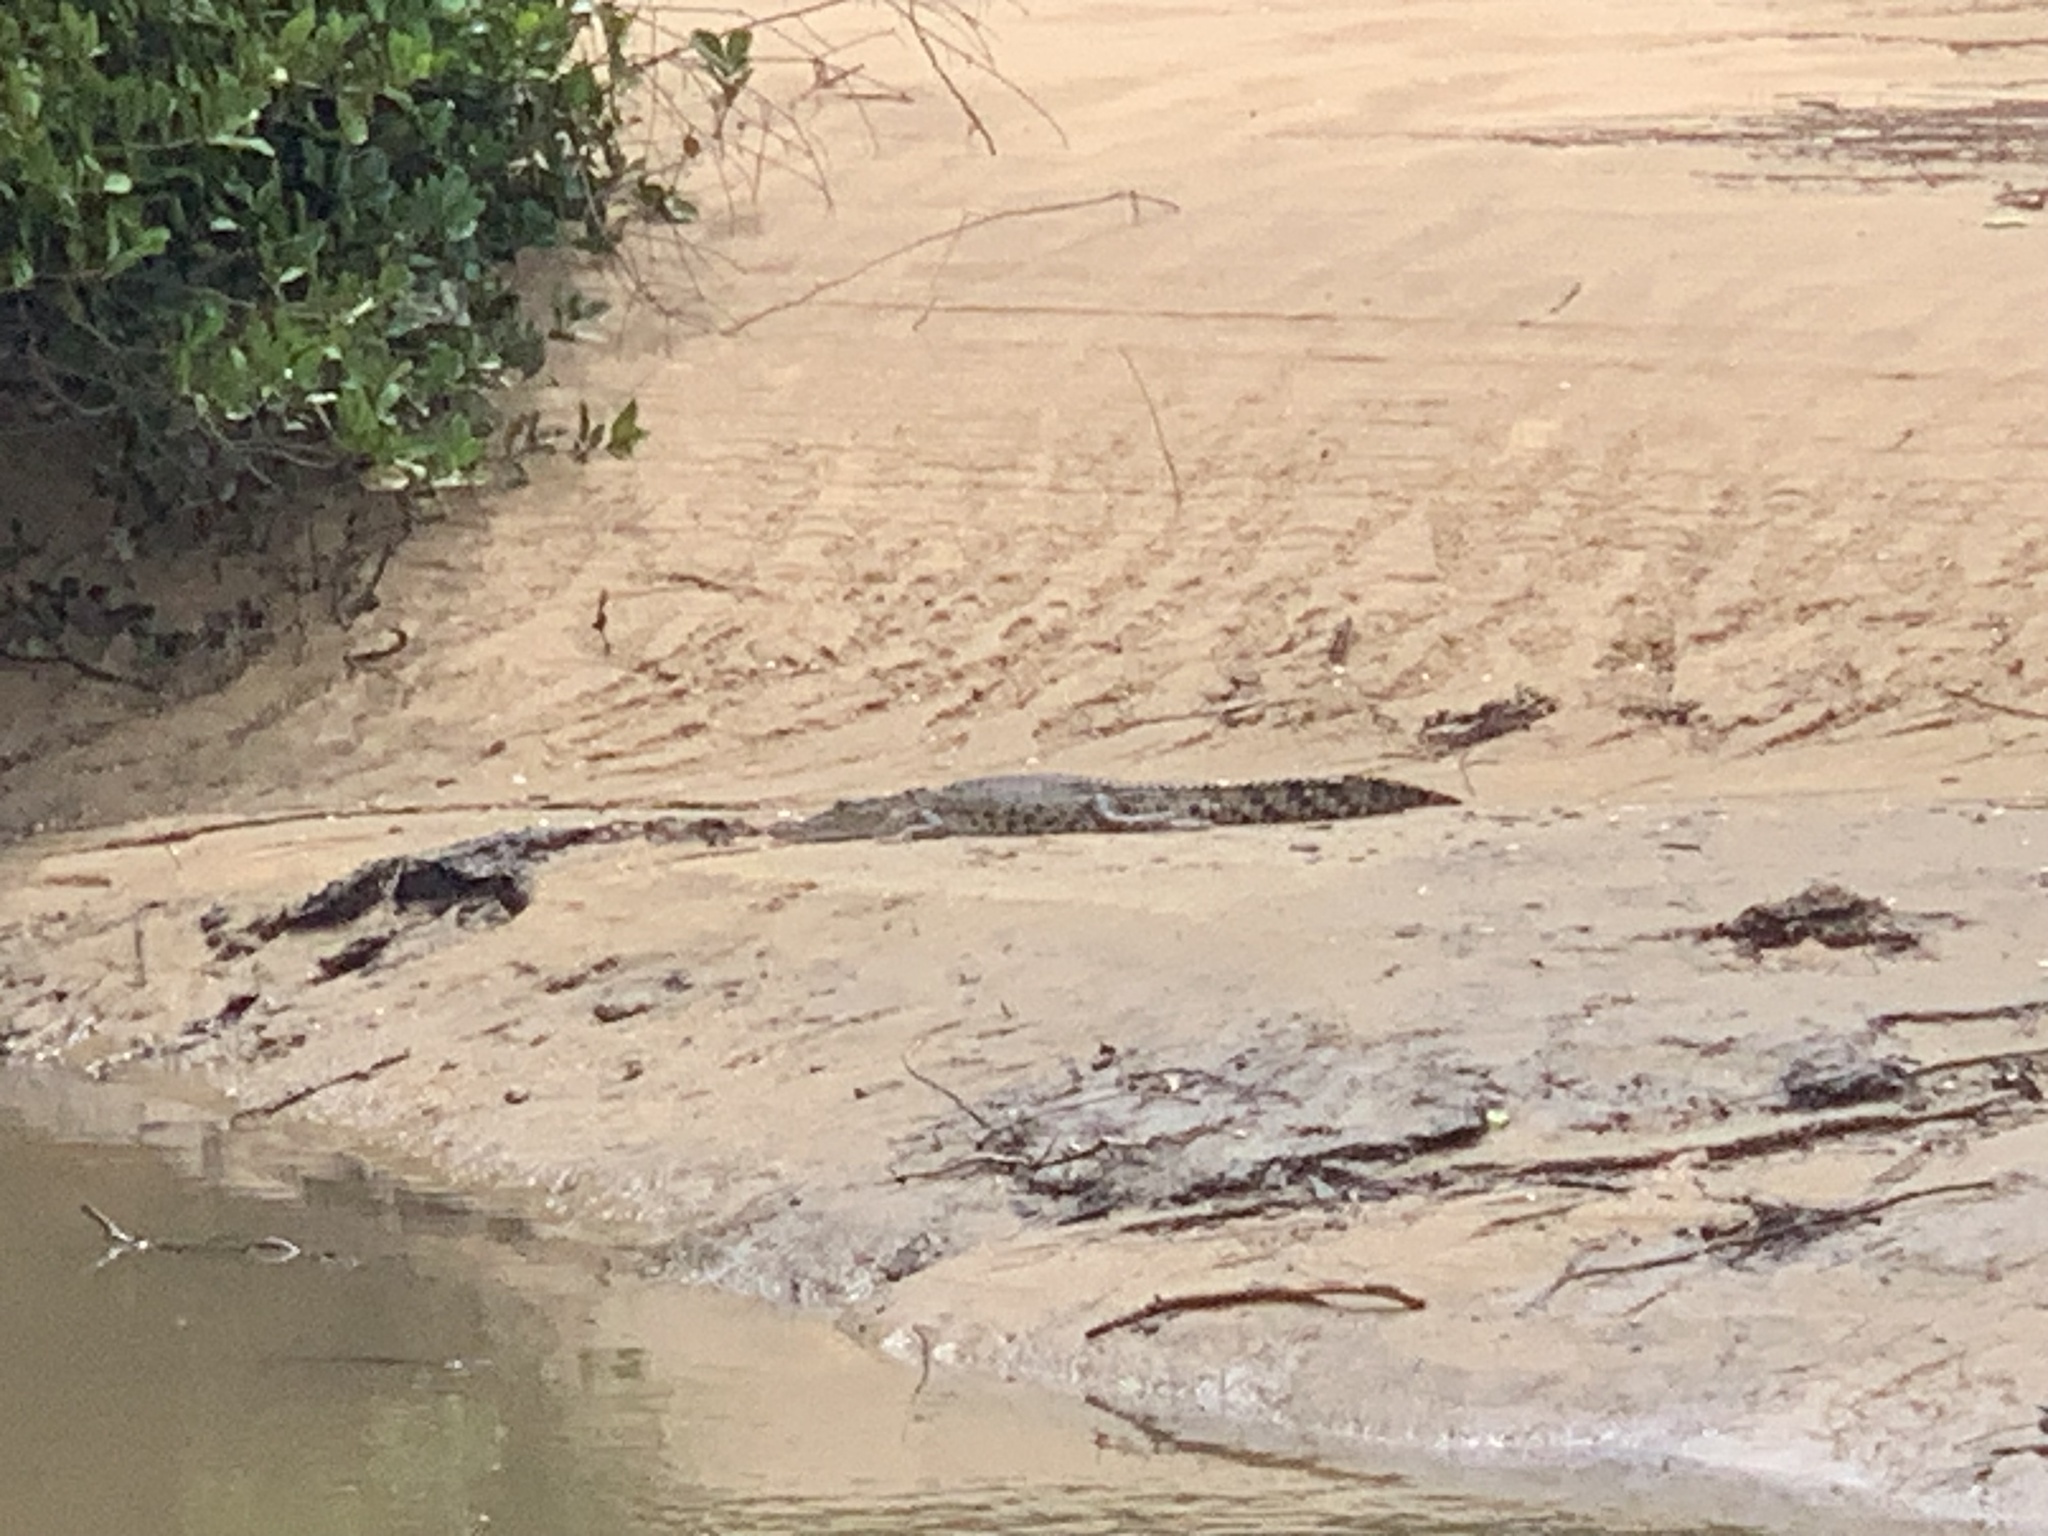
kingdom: Animalia
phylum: Chordata
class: Crocodylia
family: Crocodylidae
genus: Crocodylus
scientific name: Crocodylus porosus
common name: Saltwater crocodile
